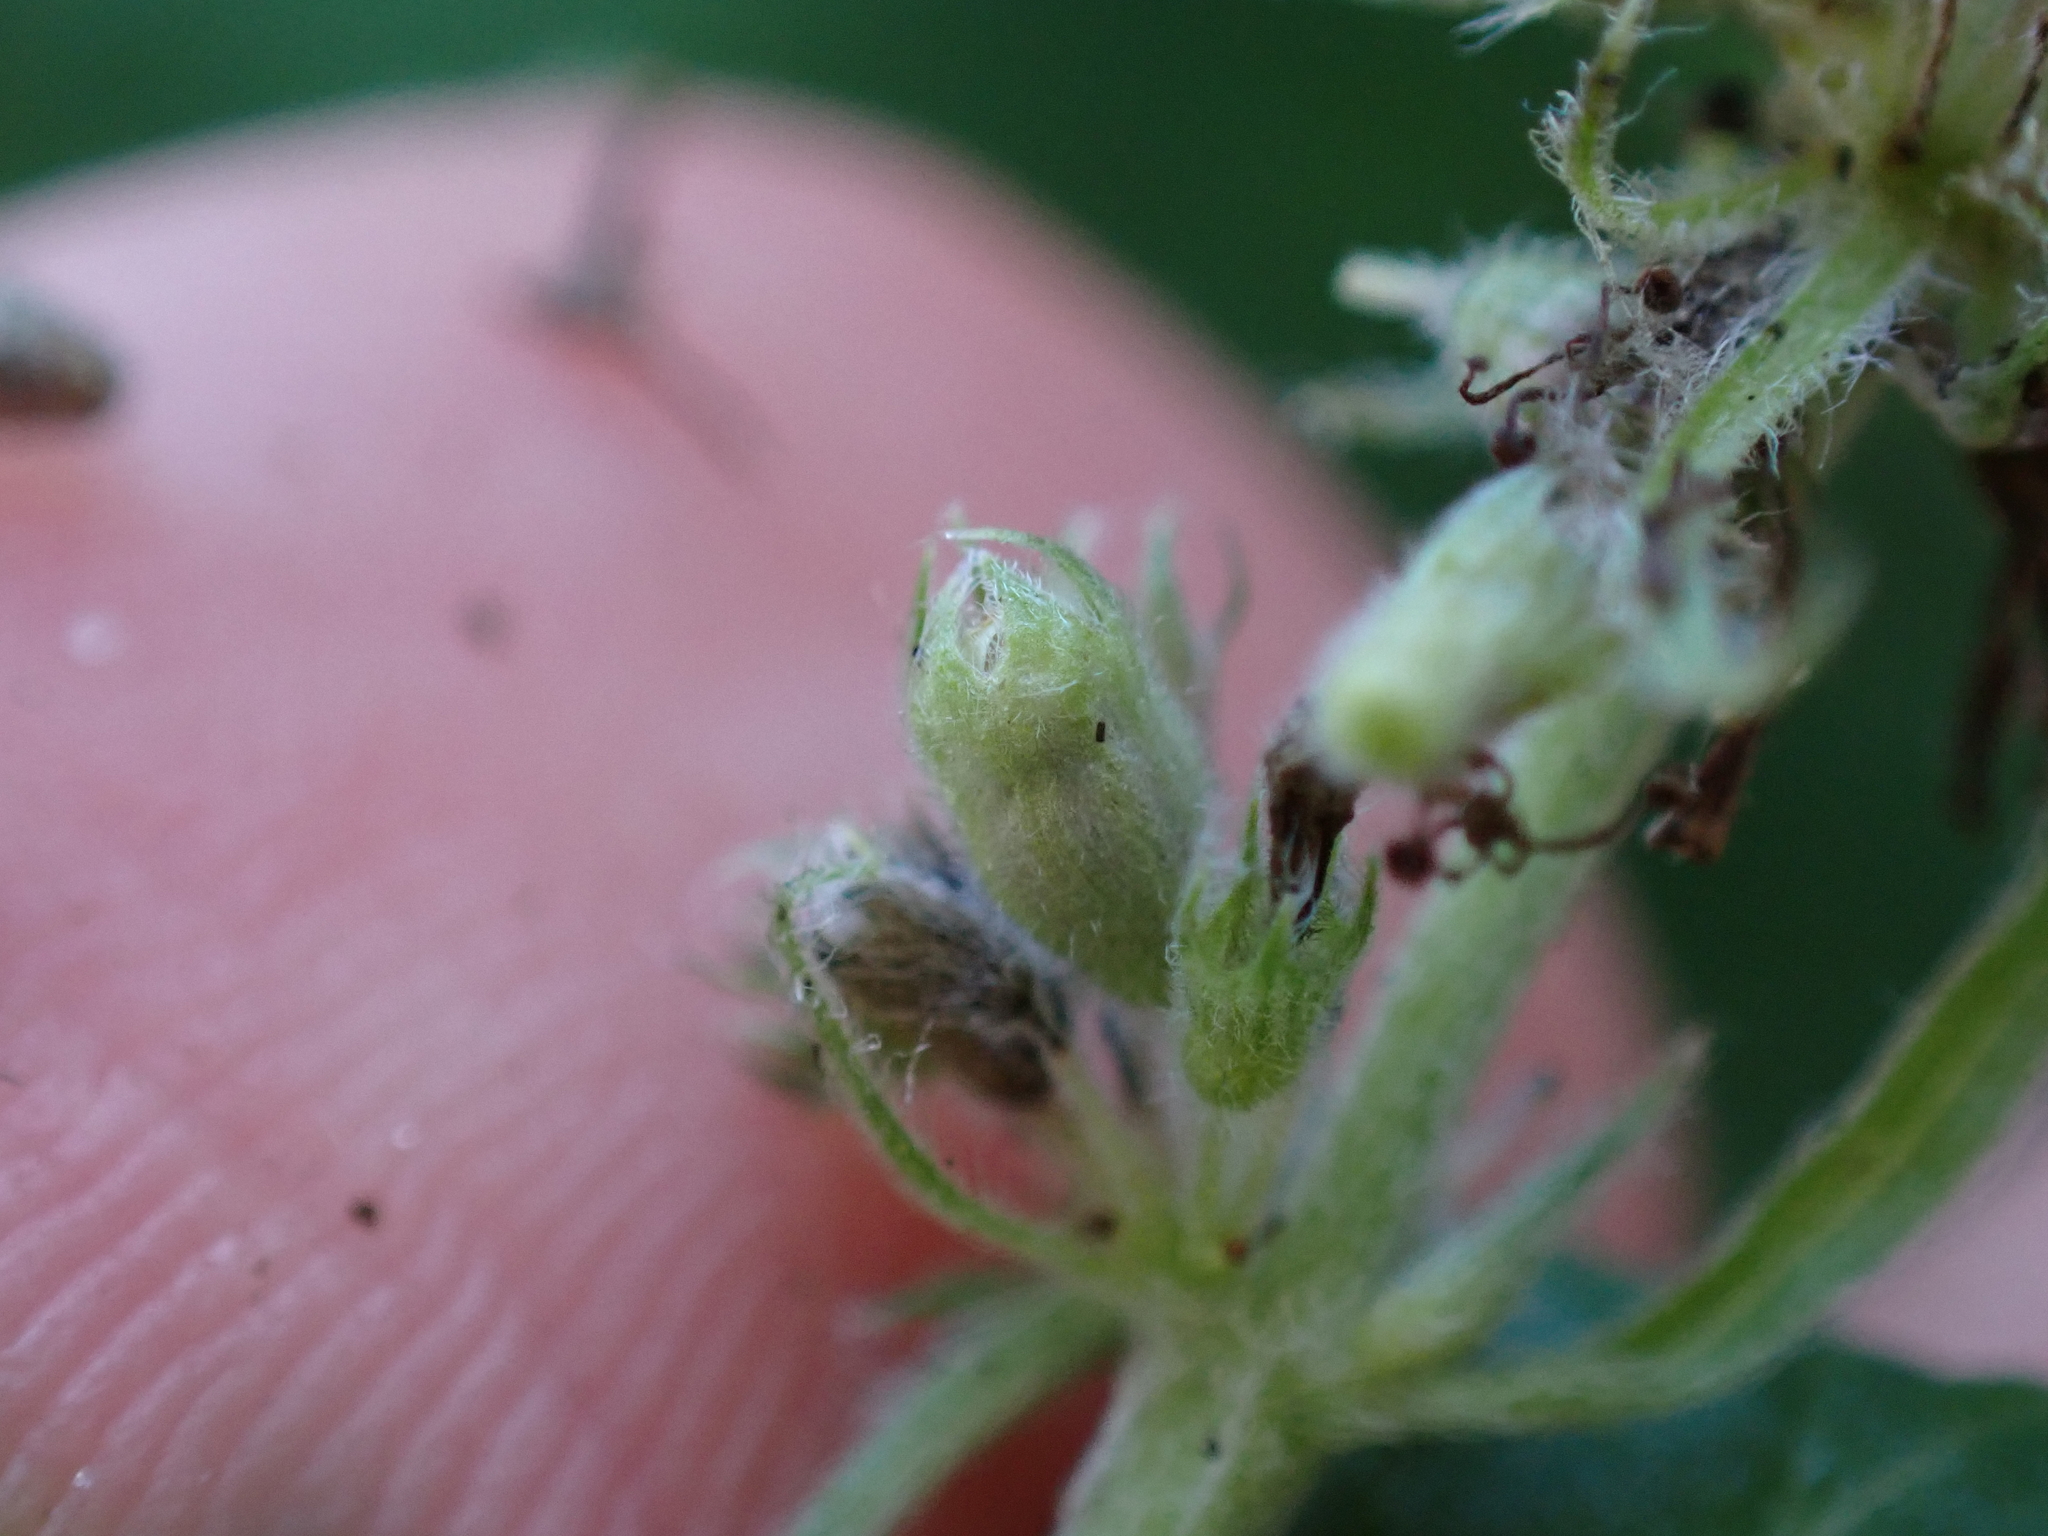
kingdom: Animalia
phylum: Arthropoda
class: Insecta
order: Diptera
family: Cecidomyiidae
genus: Asphondylia
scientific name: Asphondylia menthae
